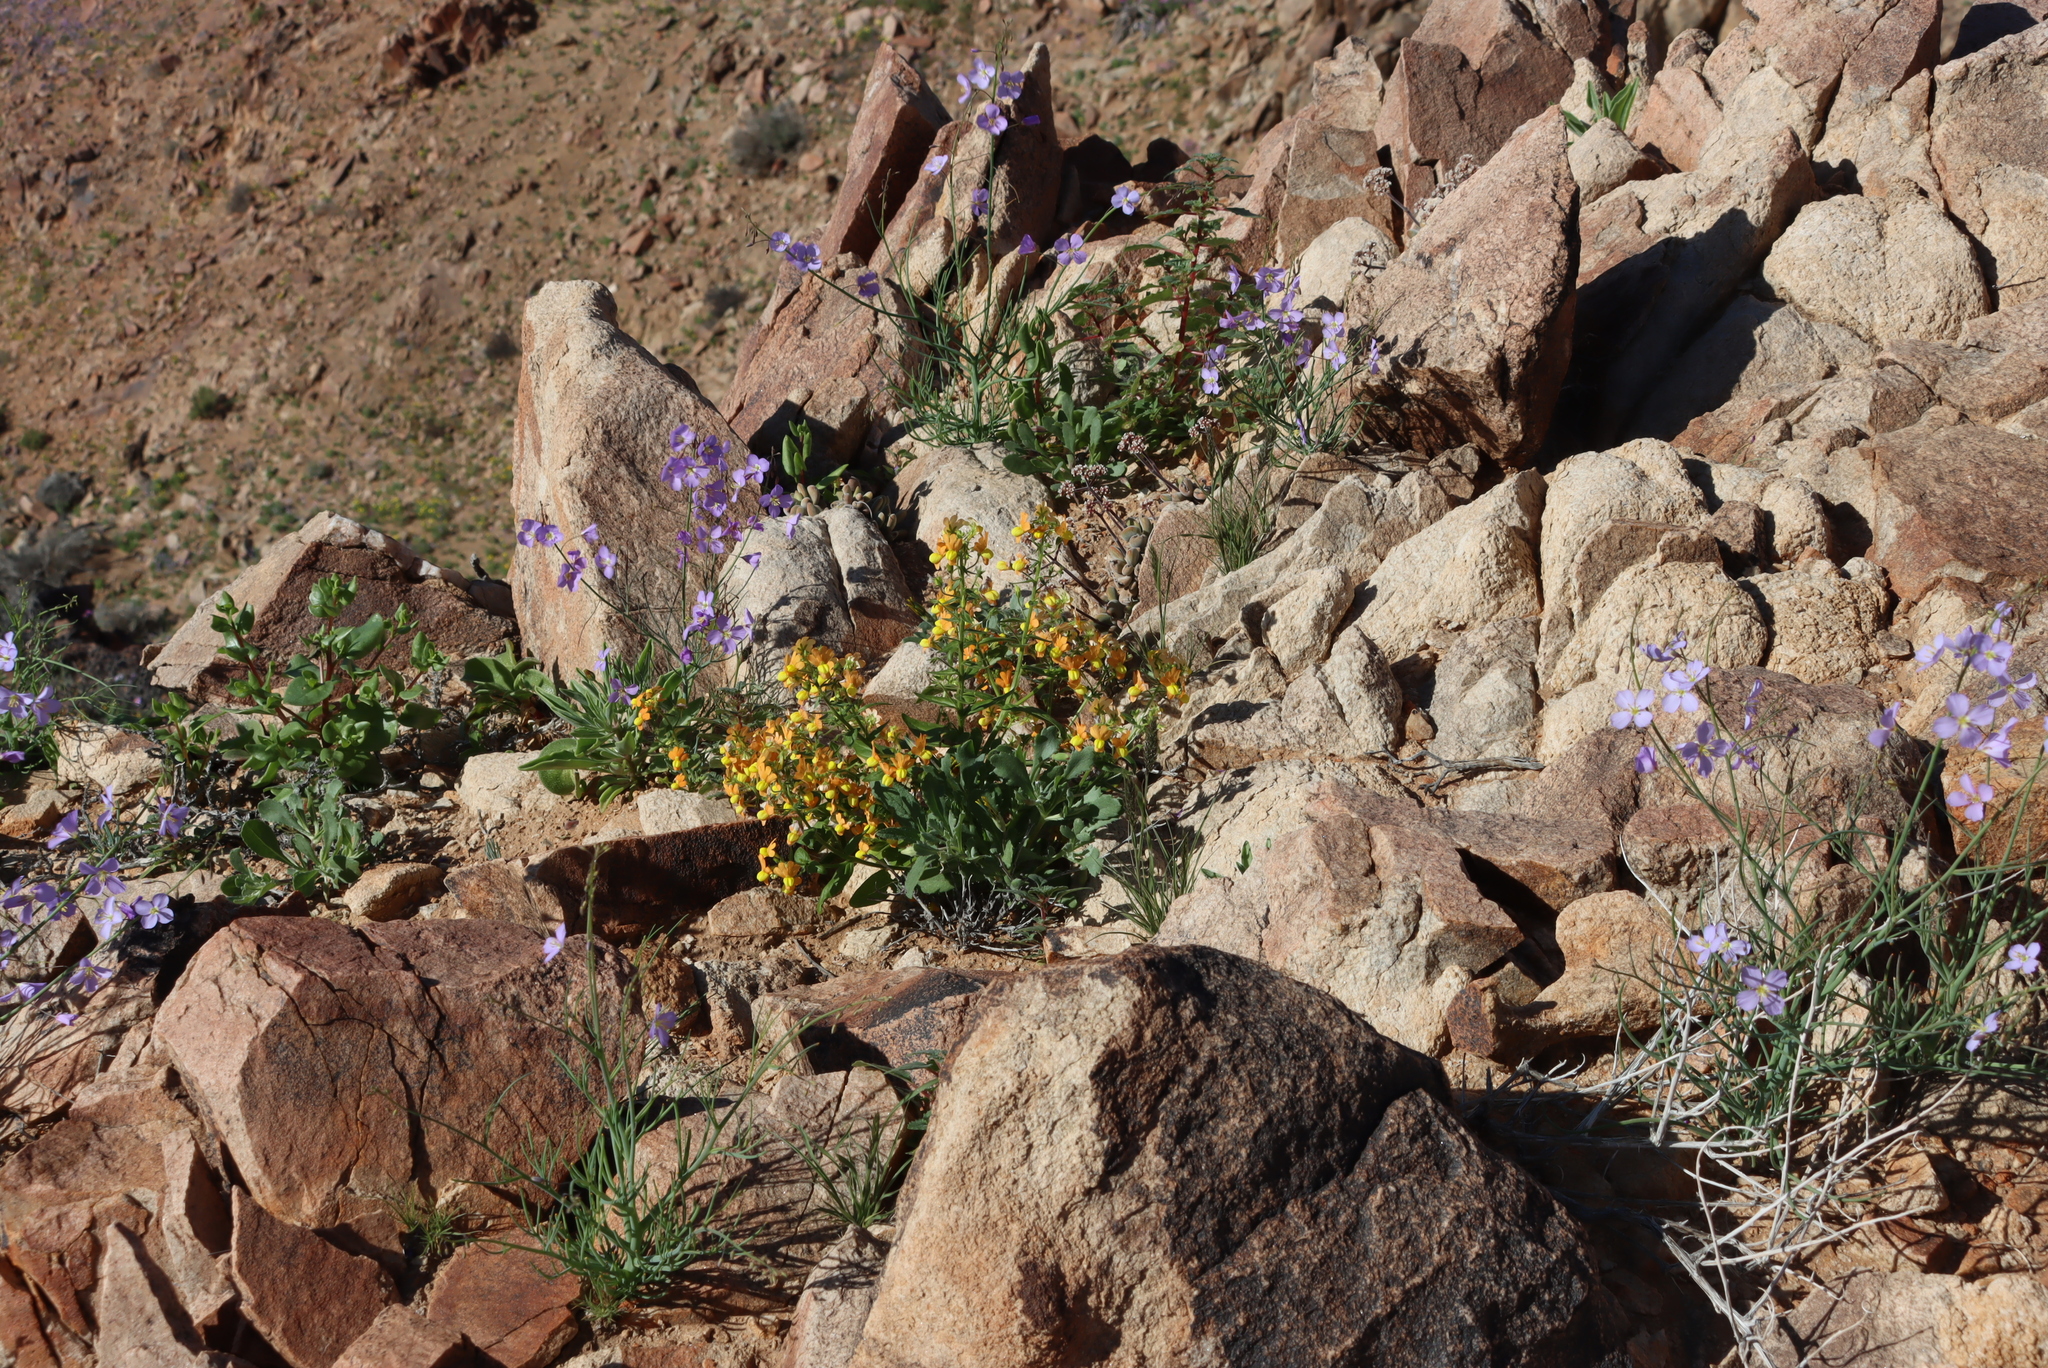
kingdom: Plantae
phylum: Tracheophyta
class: Magnoliopsida
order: Brassicales
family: Brassicaceae
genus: Heliophila
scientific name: Heliophila trifurca
